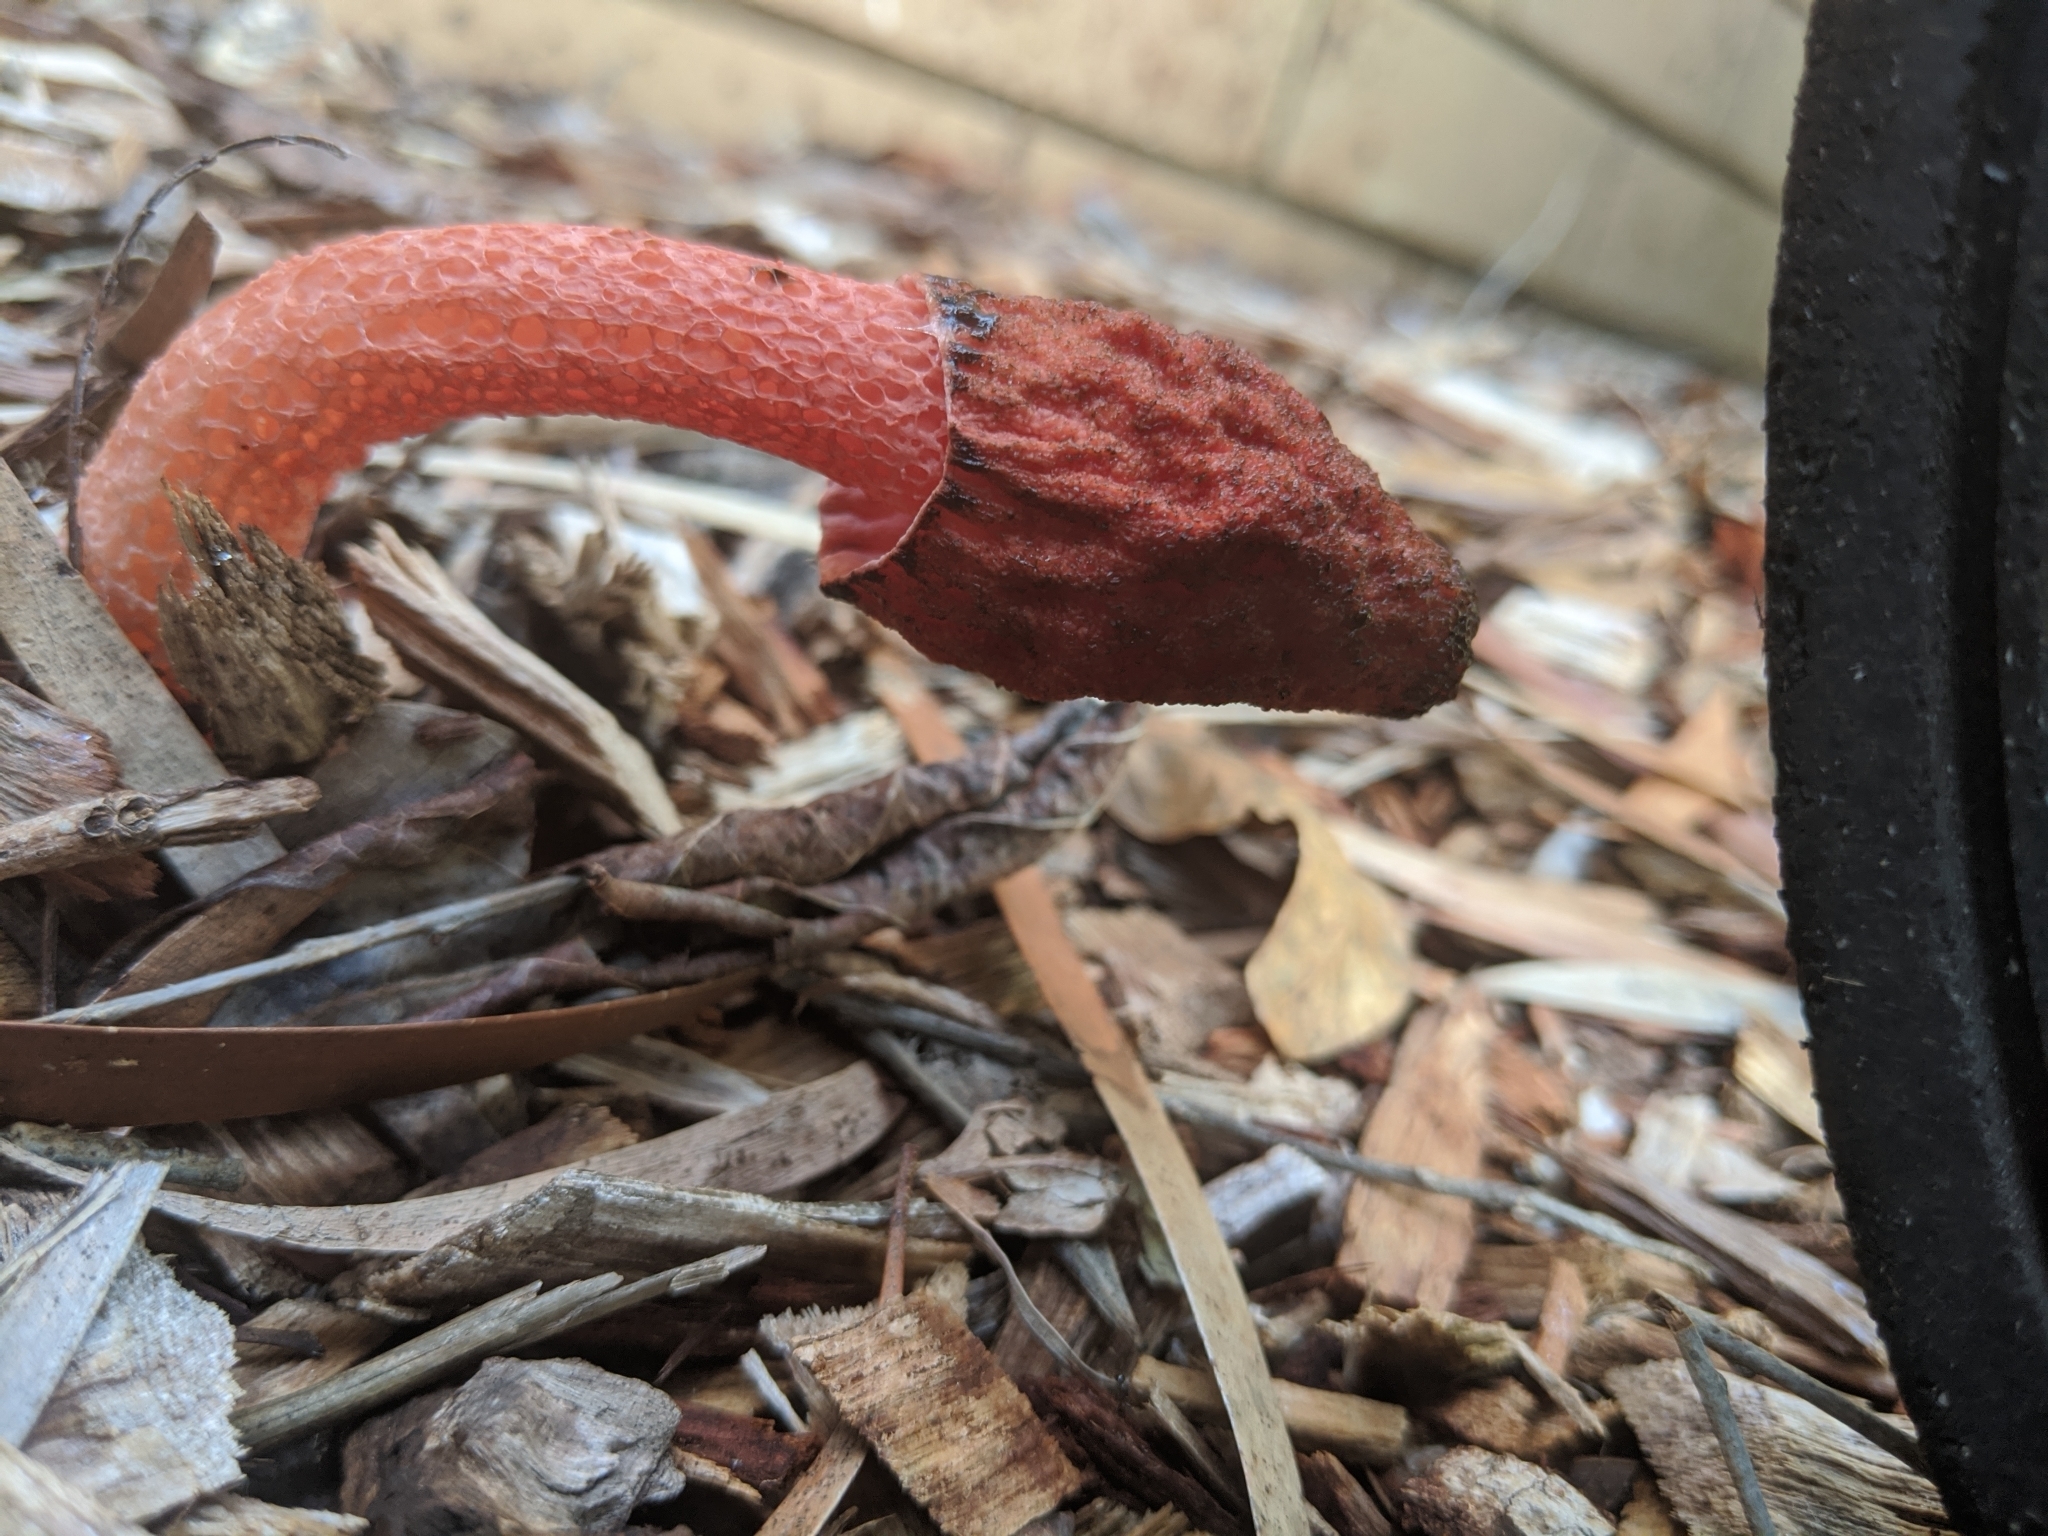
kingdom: Fungi
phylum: Basidiomycota
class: Agaricomycetes
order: Phallales
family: Phallaceae
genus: Phallus
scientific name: Phallus rubicundus
